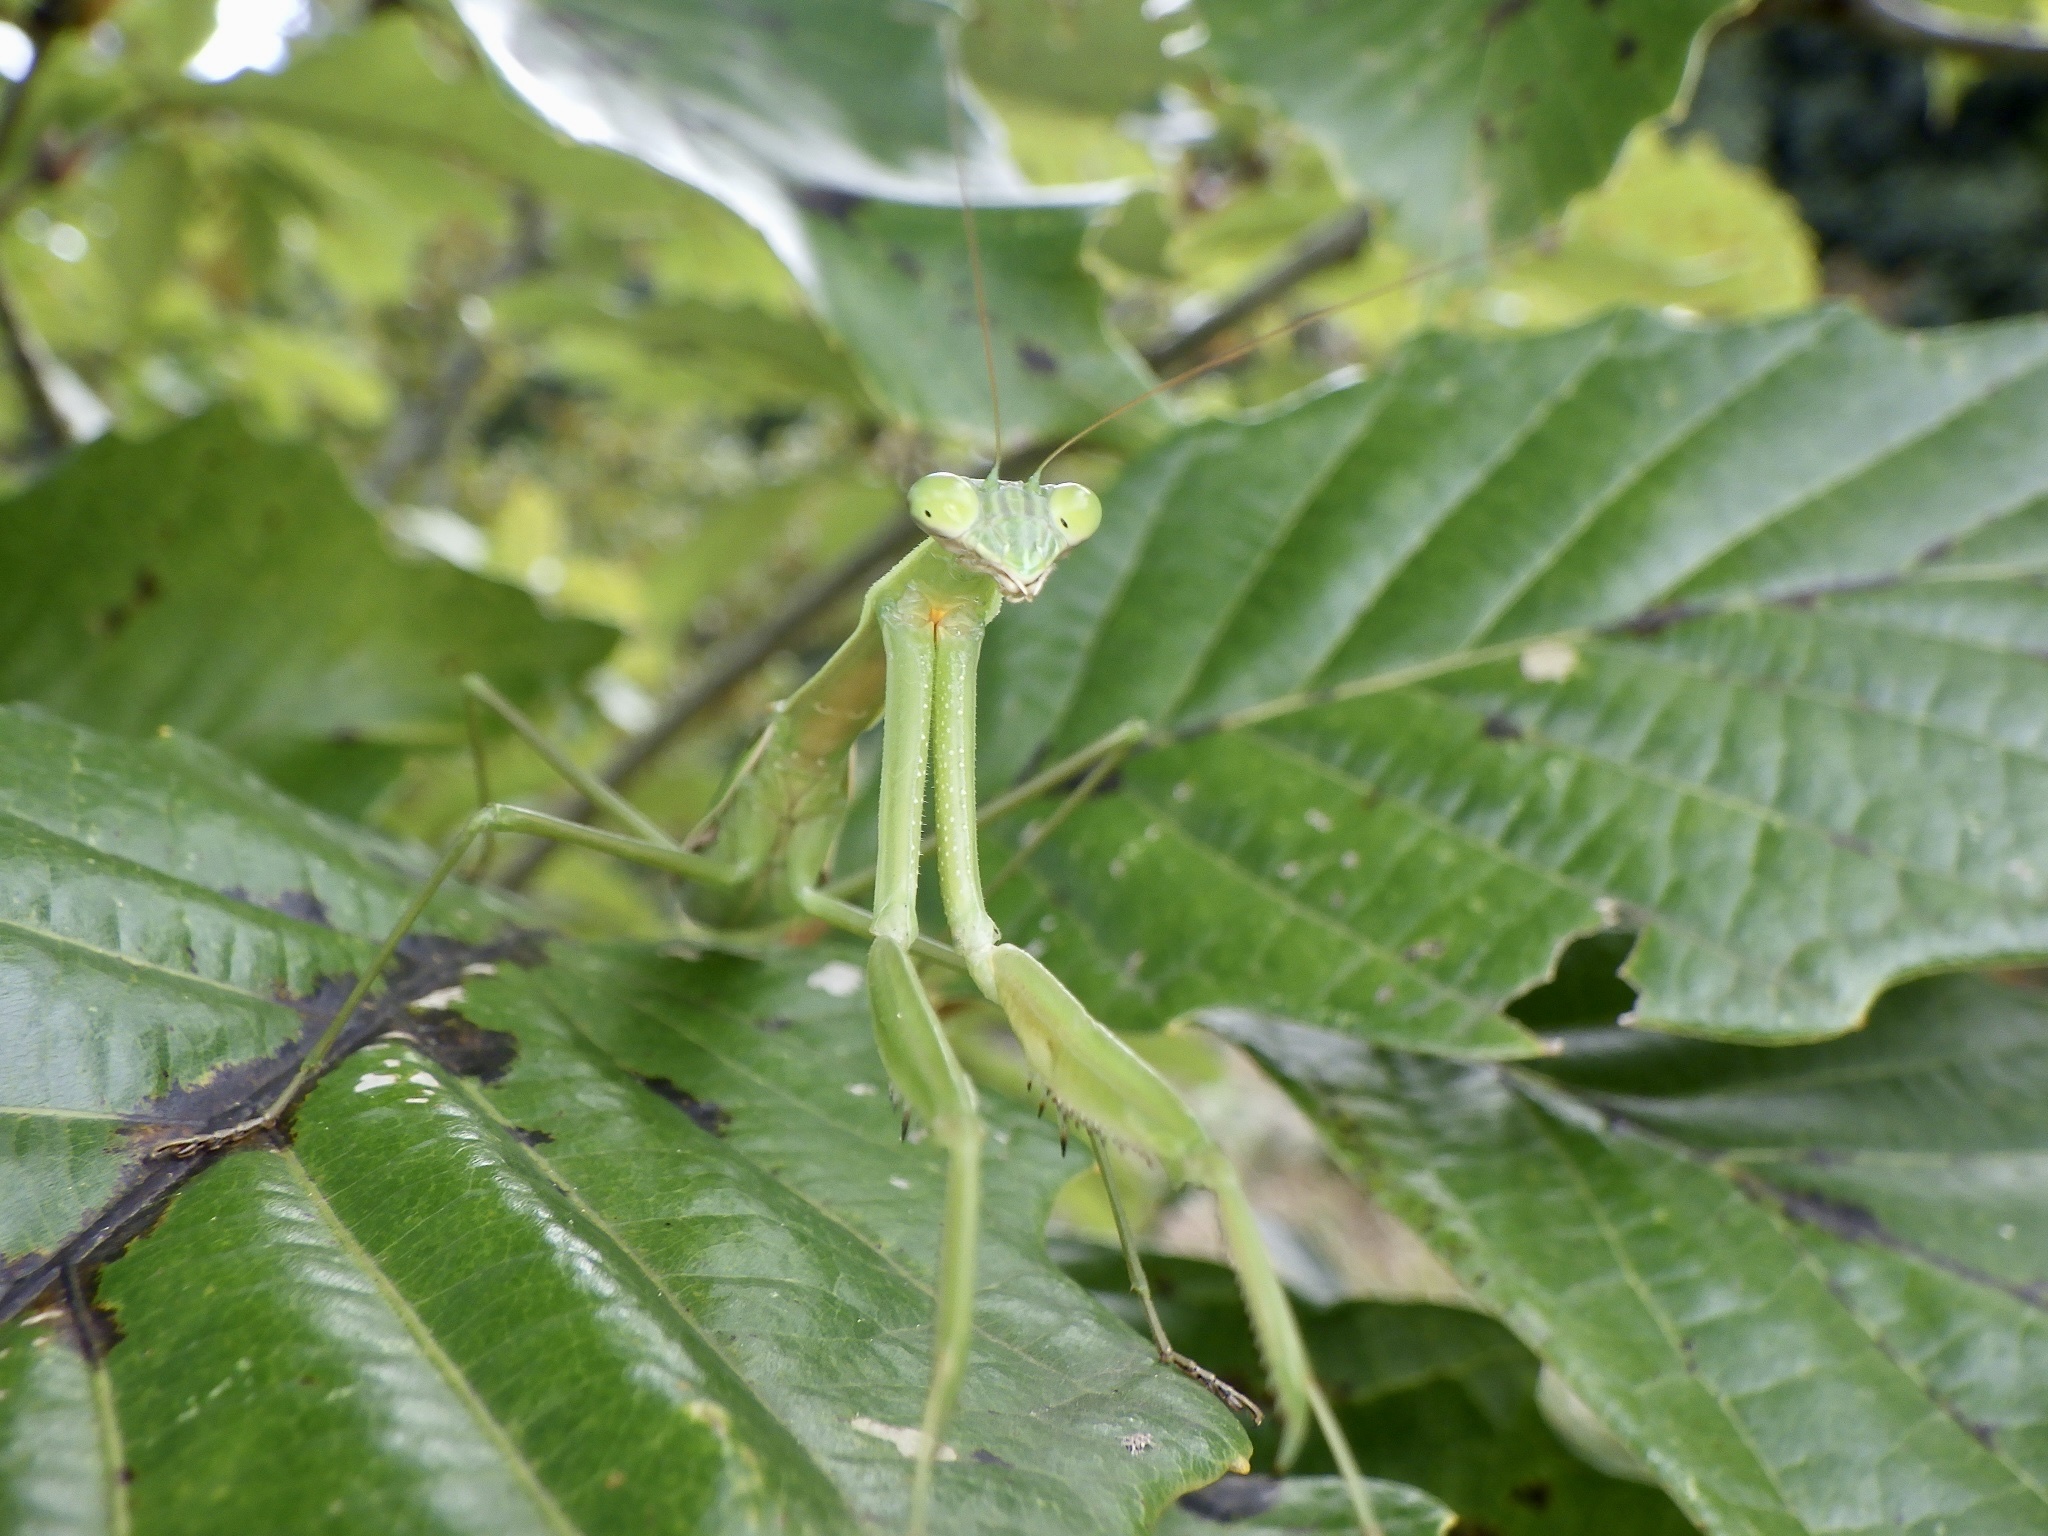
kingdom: Animalia
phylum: Arthropoda
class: Insecta
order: Mantodea
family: Mantidae
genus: Tenodera
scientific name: Tenodera angustipennis
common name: Asian mantis
